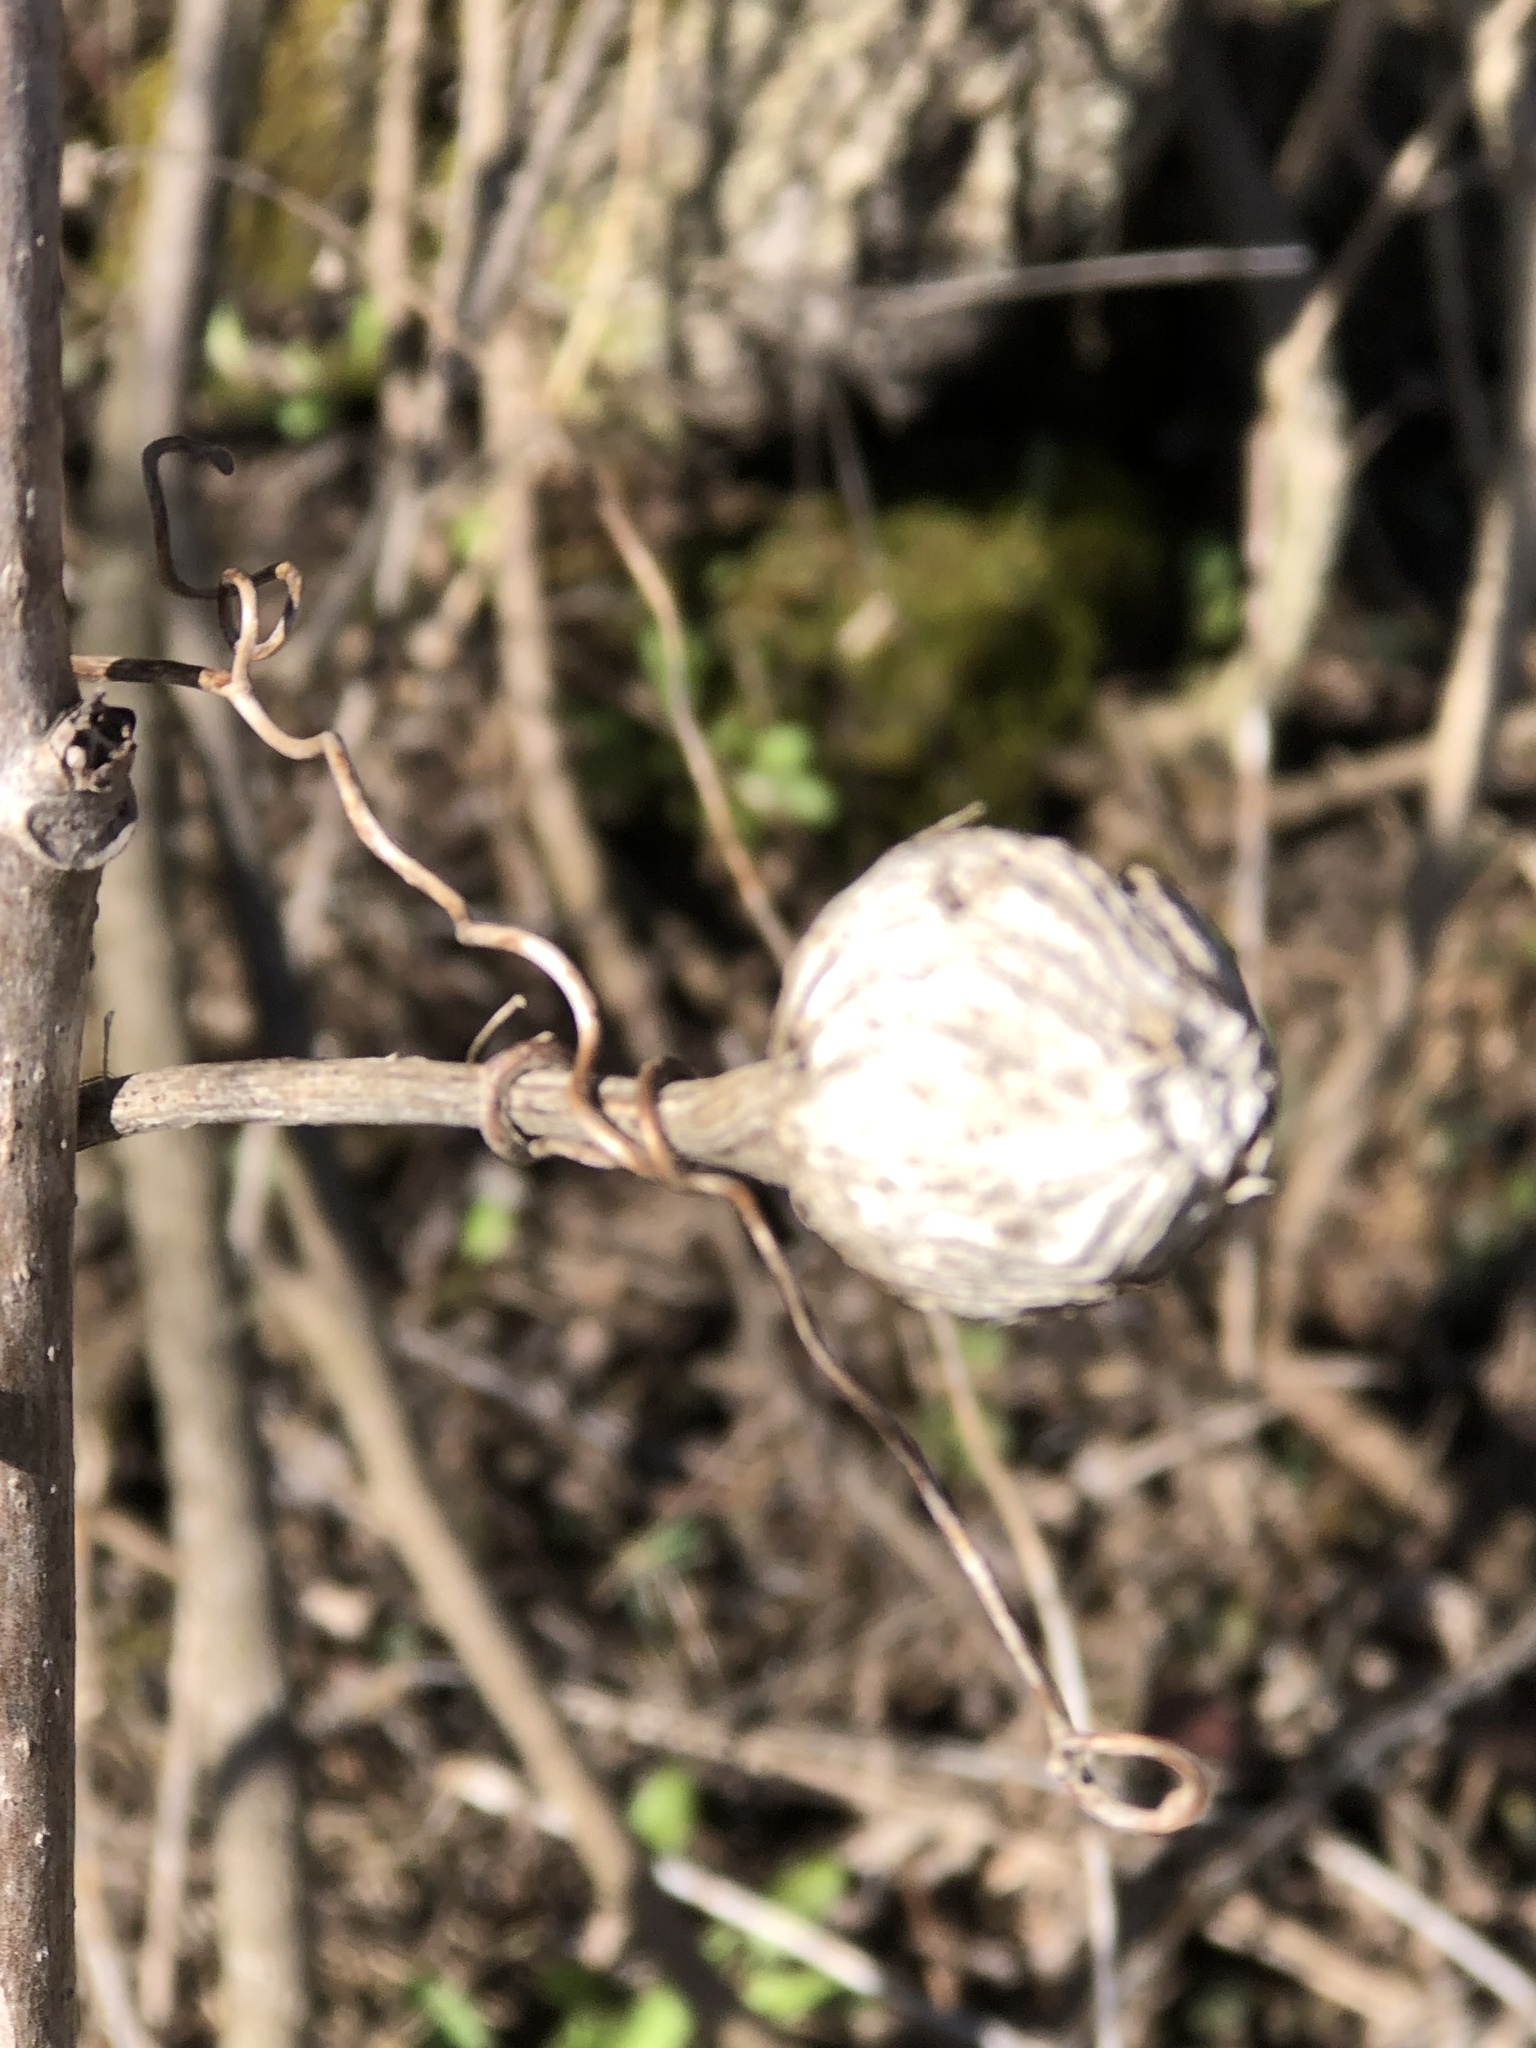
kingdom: Animalia
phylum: Arthropoda
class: Insecta
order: Diptera
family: Tephritidae
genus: Eurosta
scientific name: Eurosta solidaginis
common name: Goldenrod gall fly
